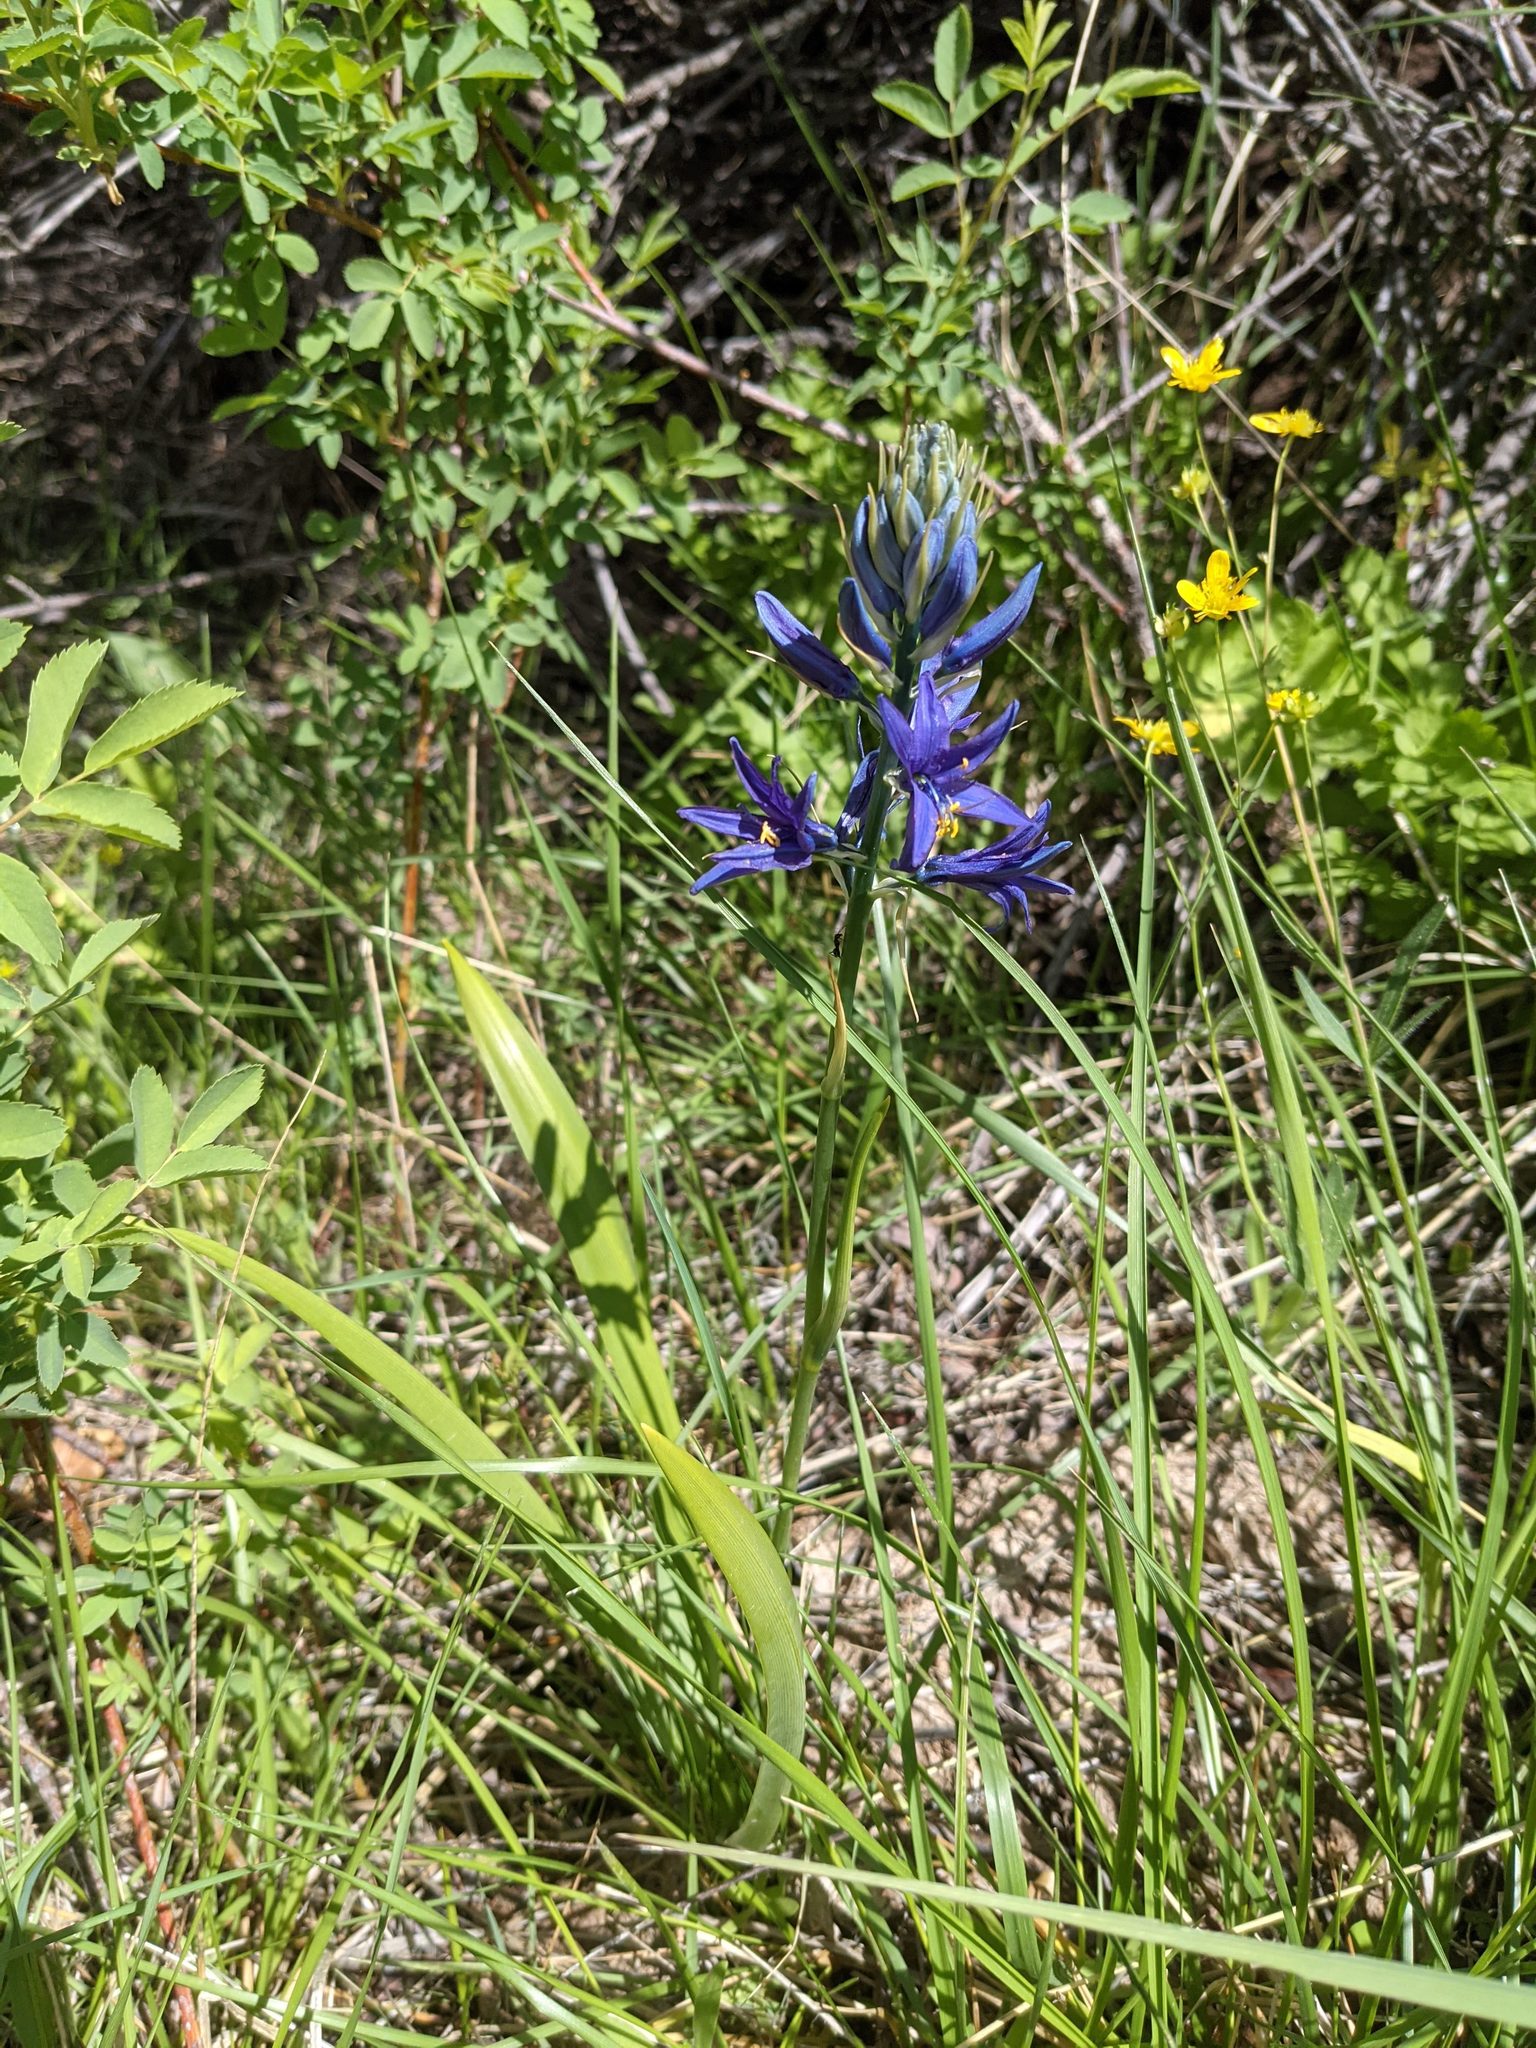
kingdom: Plantae
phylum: Tracheophyta
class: Liliopsida
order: Asparagales
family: Asparagaceae
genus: Camassia
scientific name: Camassia quamash
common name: Common camas
